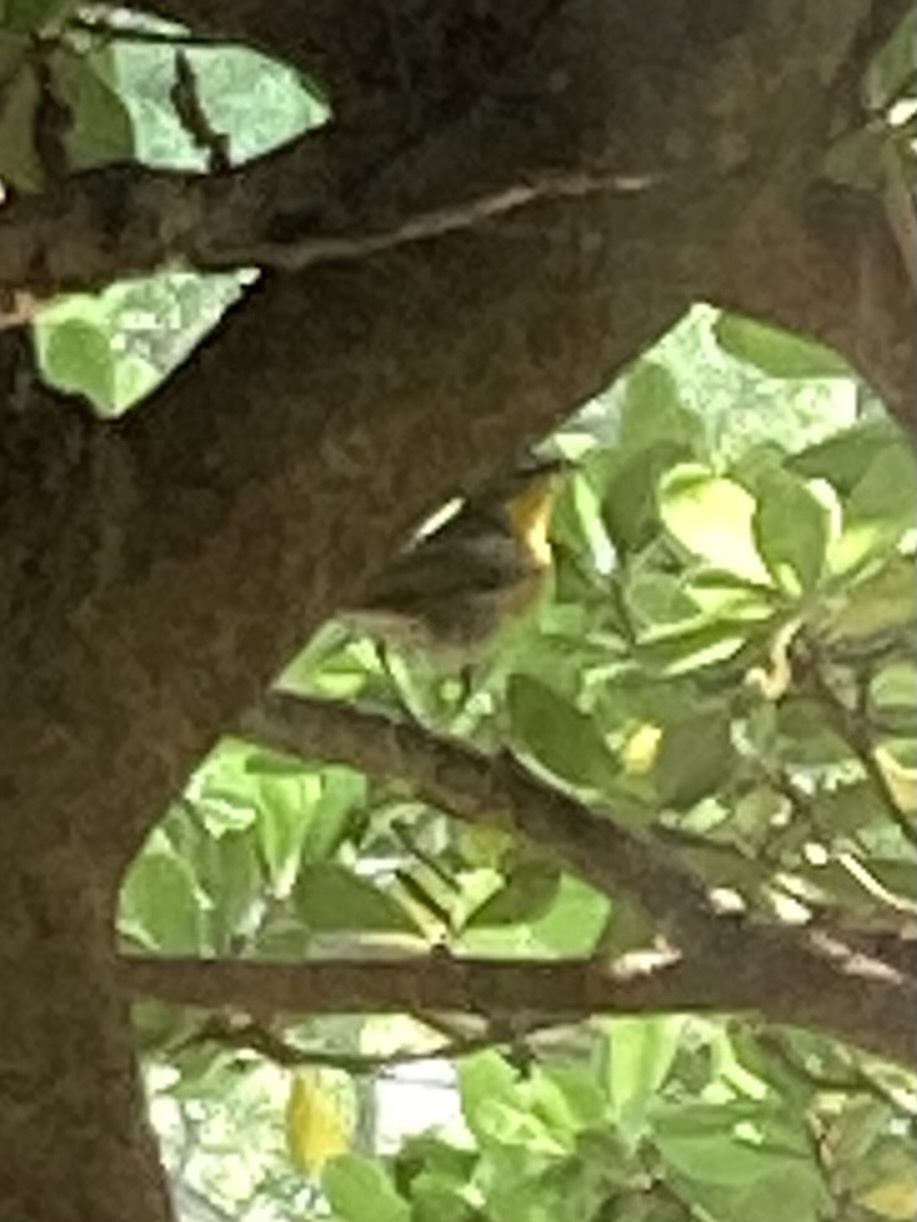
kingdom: Animalia
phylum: Chordata
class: Aves
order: Passeriformes
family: Parulidae
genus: Icteria
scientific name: Icteria virens
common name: Yellow-breasted chat
